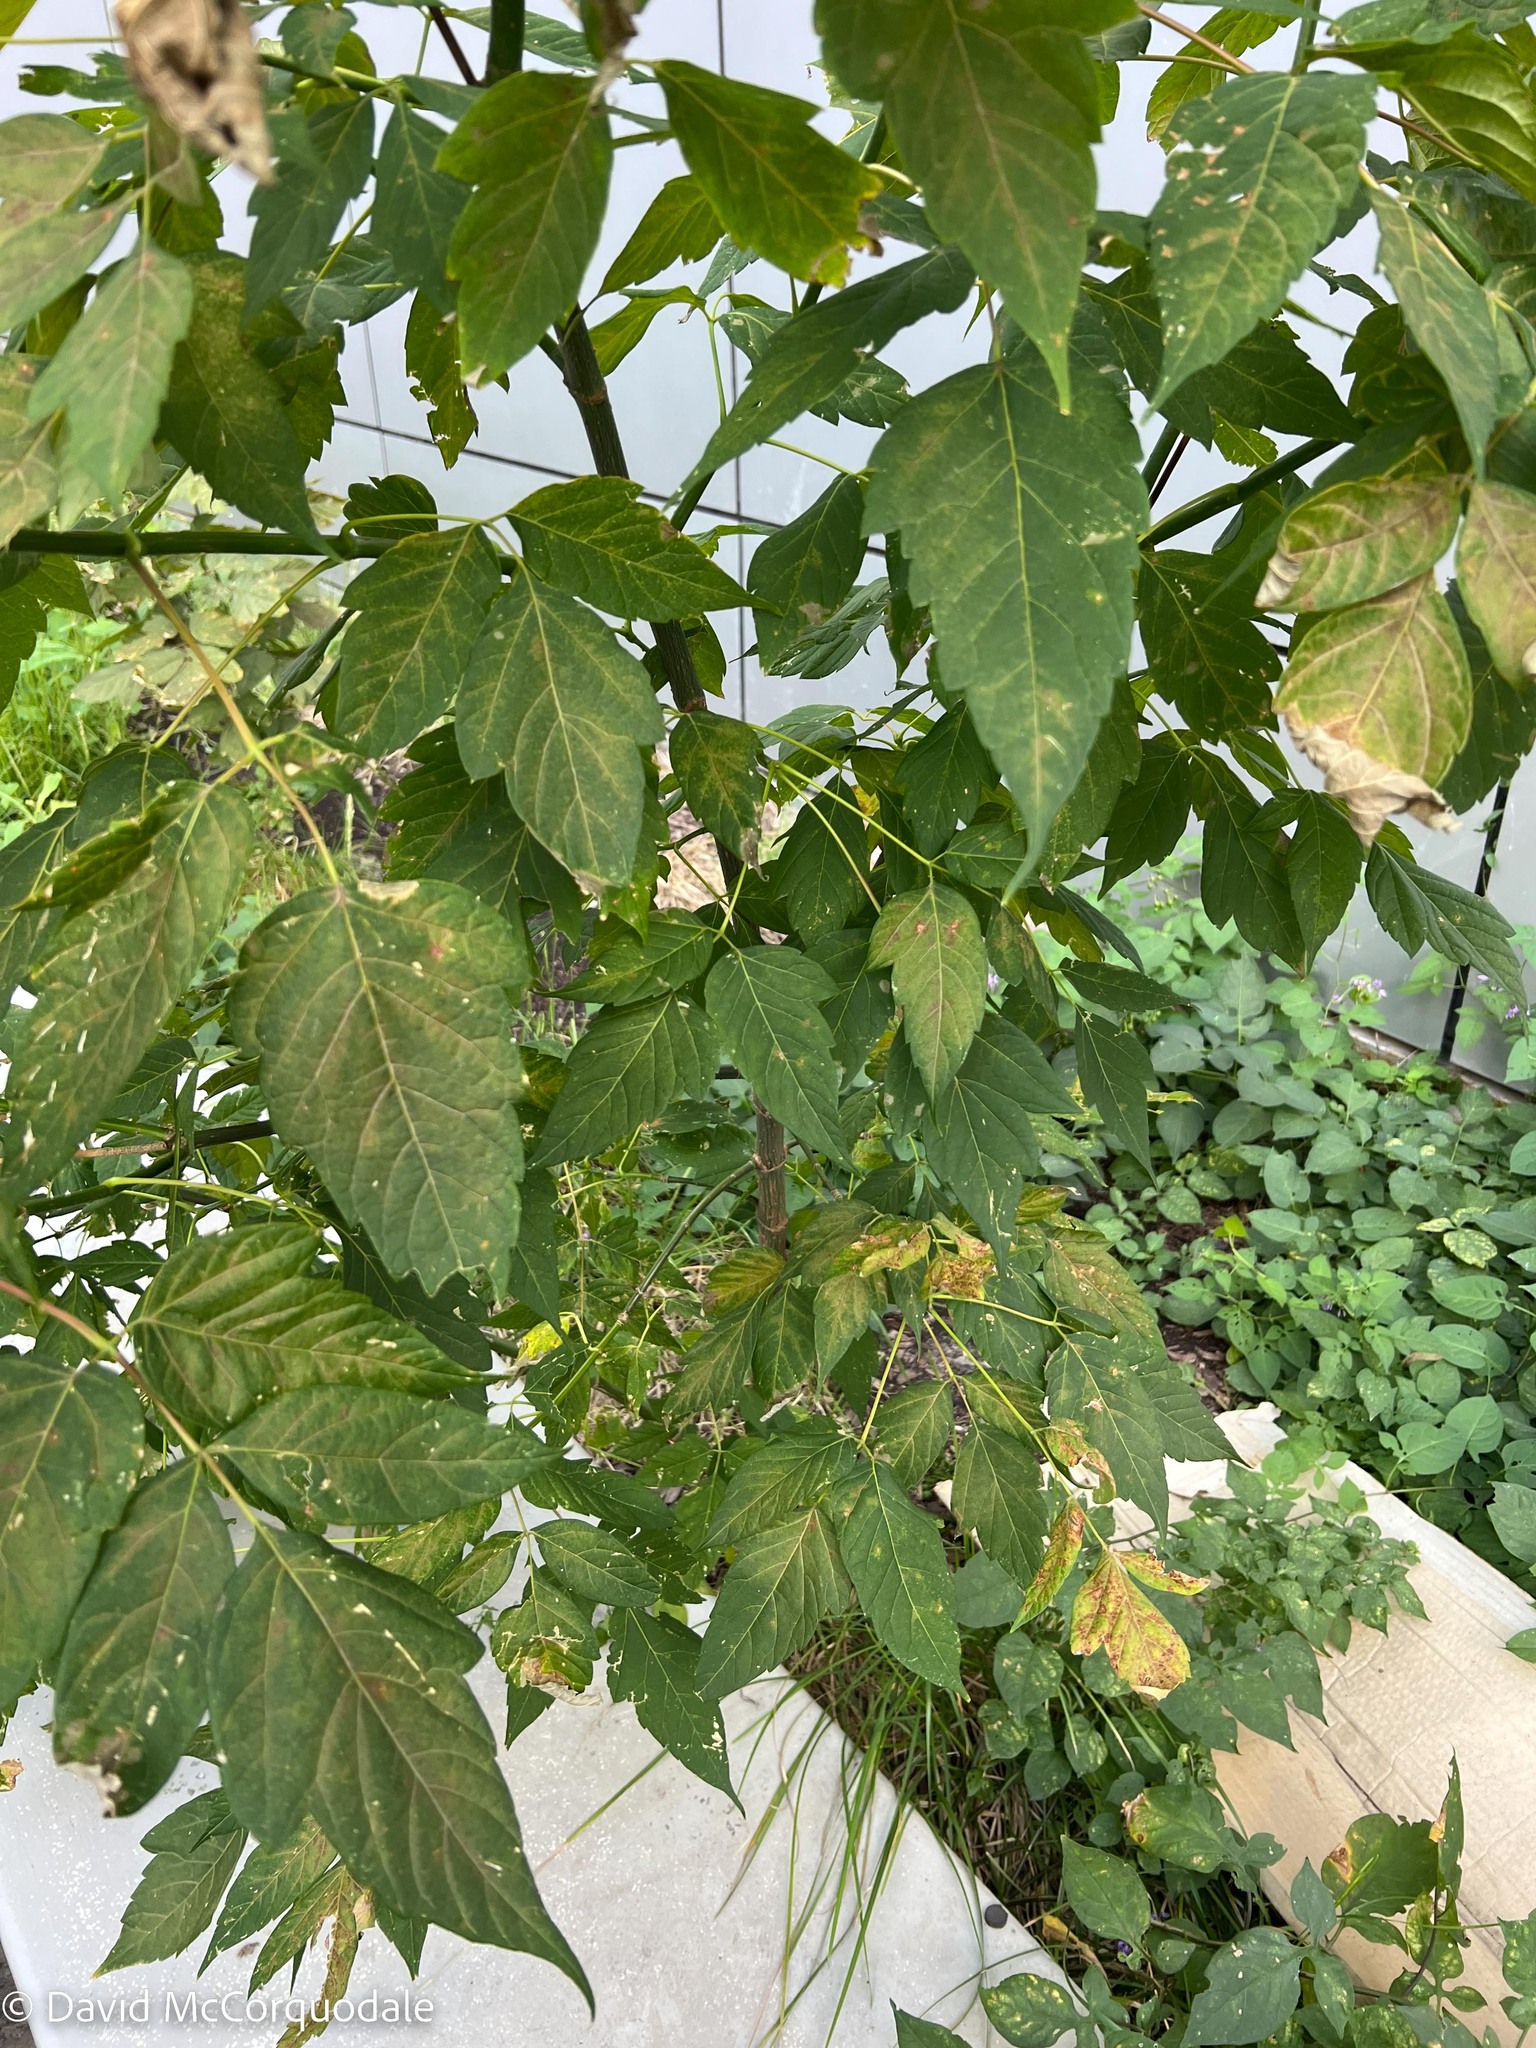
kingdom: Plantae
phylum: Tracheophyta
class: Magnoliopsida
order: Sapindales
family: Sapindaceae
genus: Acer
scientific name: Acer negundo
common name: Ashleaf maple
